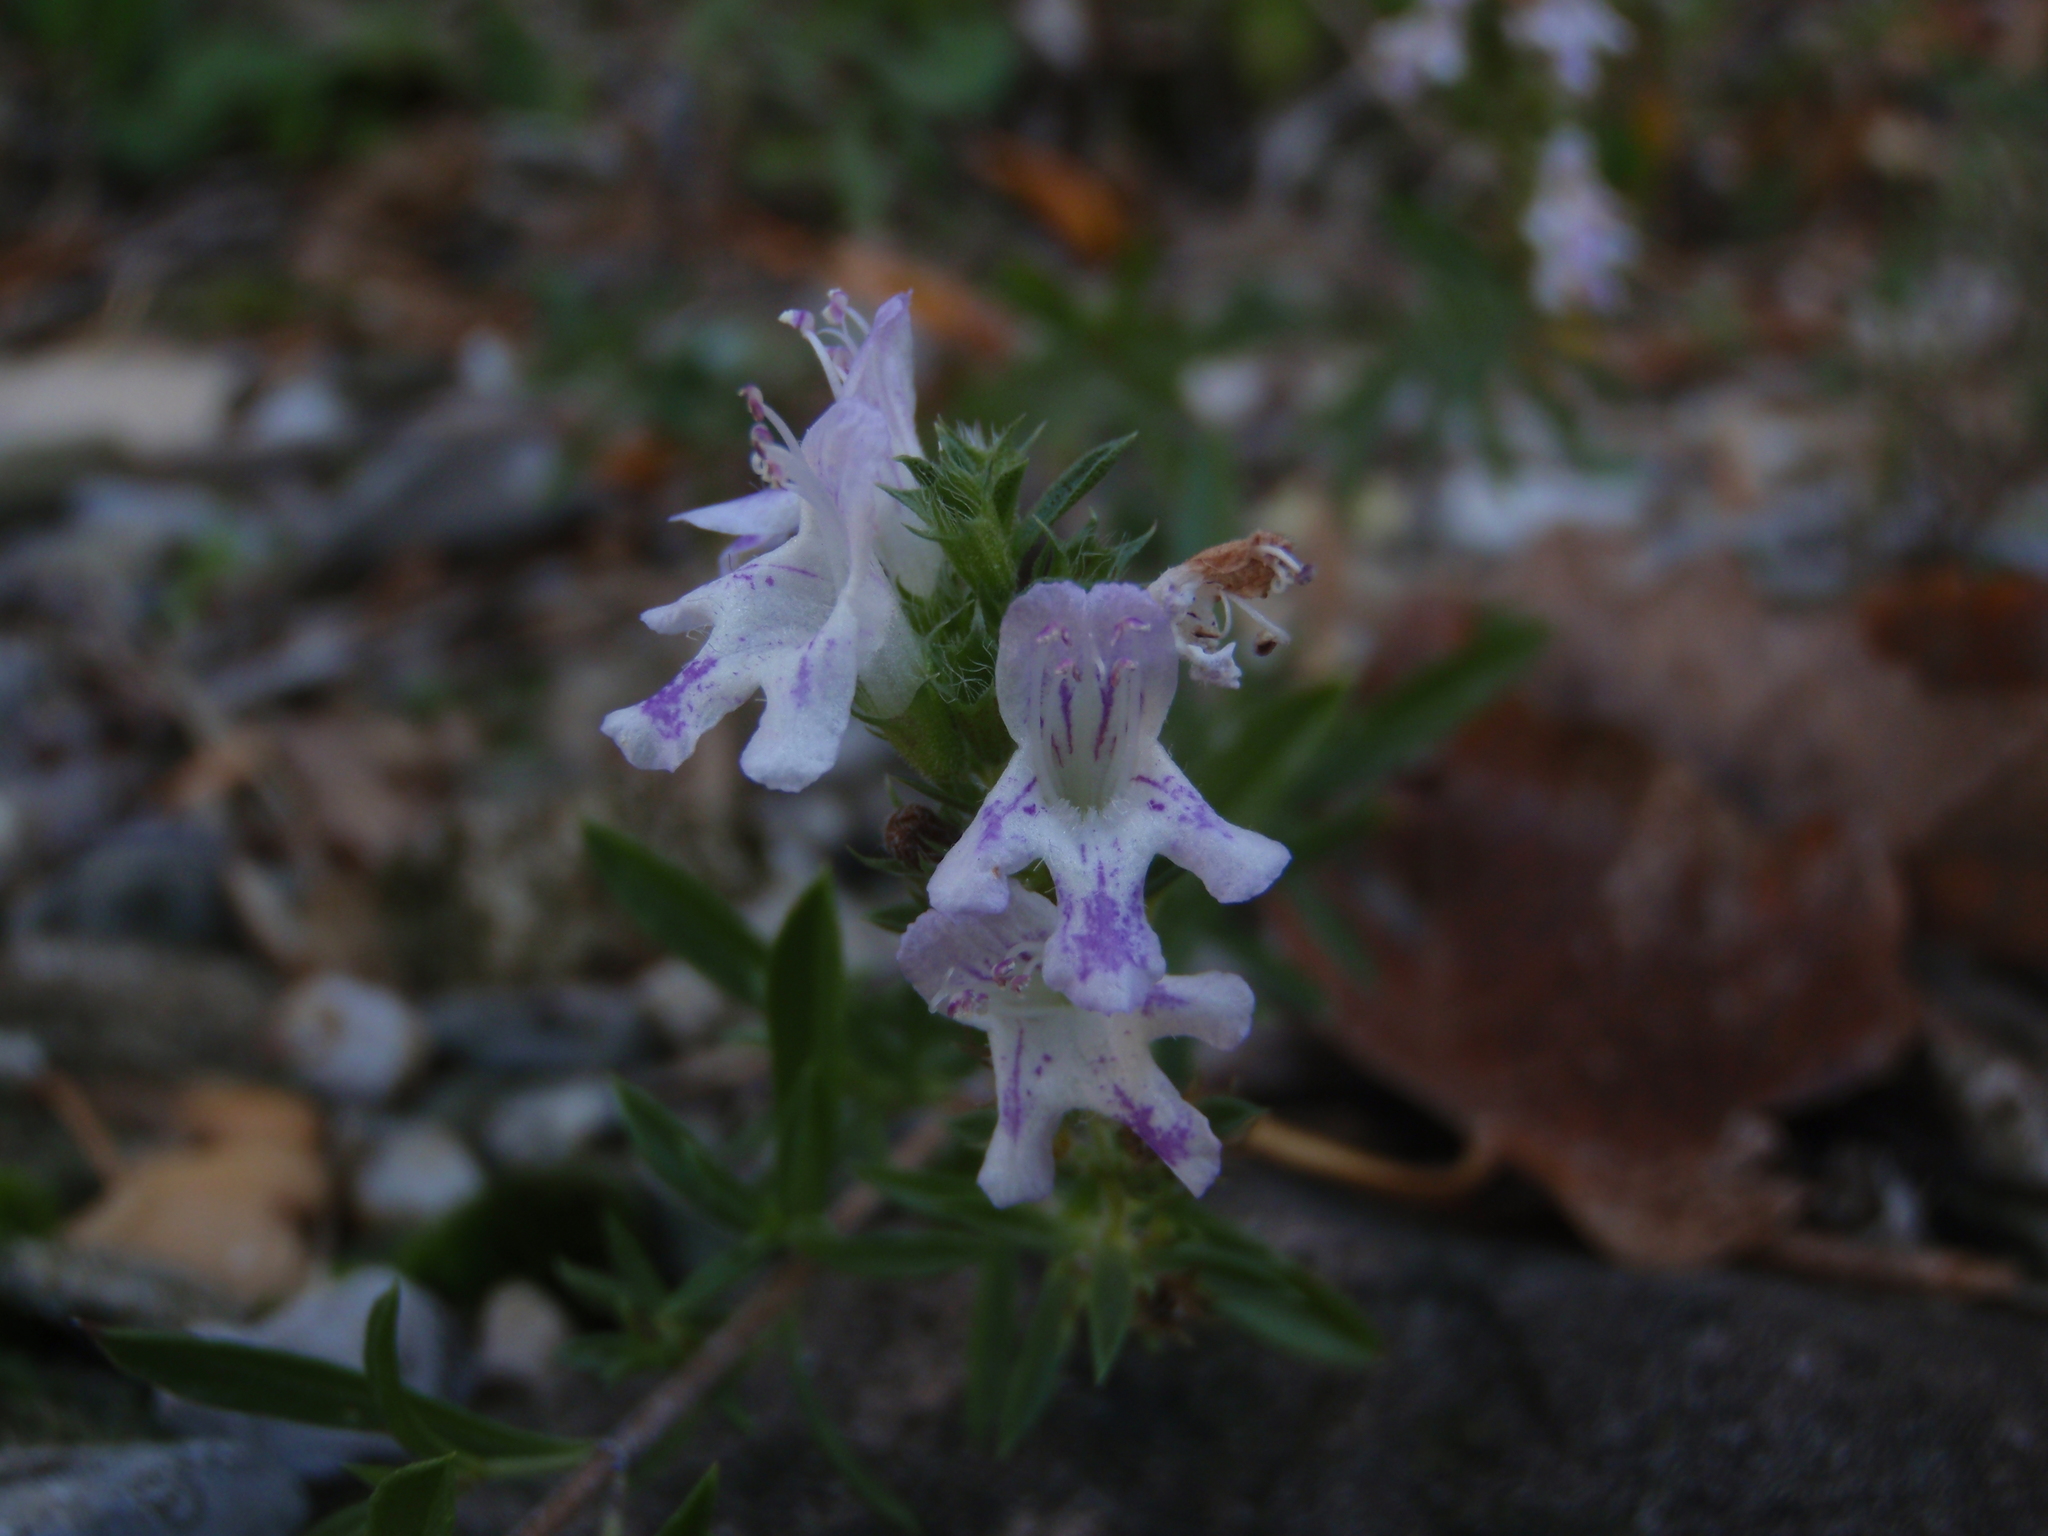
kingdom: Plantae
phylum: Tracheophyta
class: Magnoliopsida
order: Lamiales
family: Lamiaceae
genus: Satureja
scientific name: Satureja montana
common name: Winter savory
